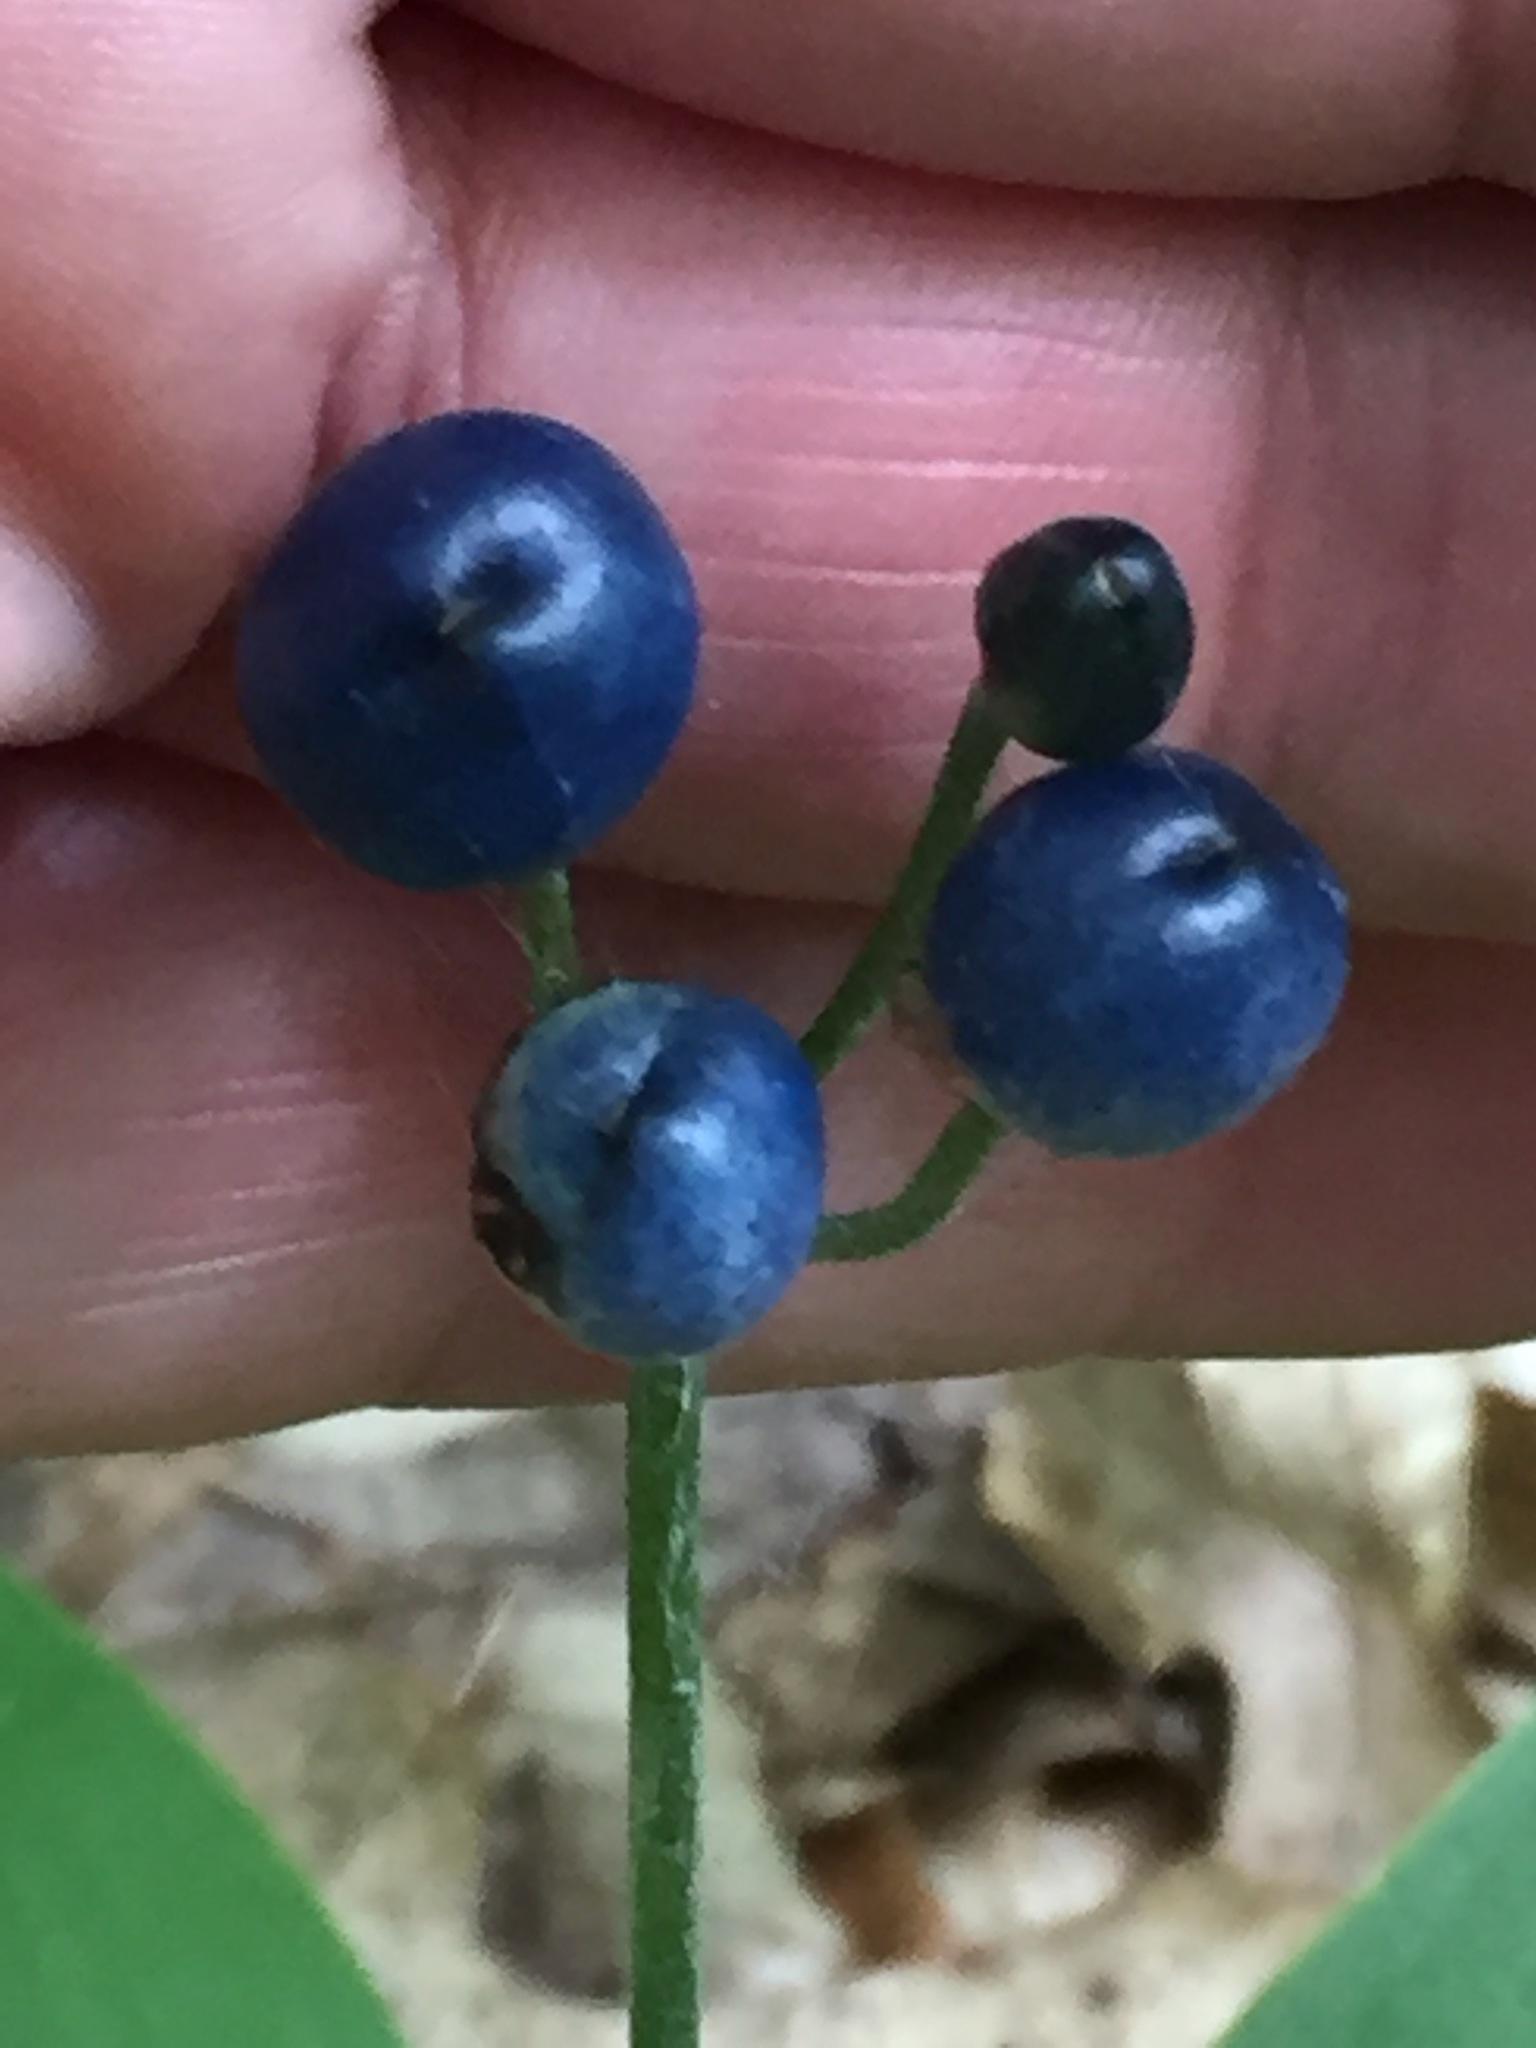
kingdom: Plantae
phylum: Tracheophyta
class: Liliopsida
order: Liliales
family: Liliaceae
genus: Clintonia
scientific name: Clintonia borealis
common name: Yellow clintonia
